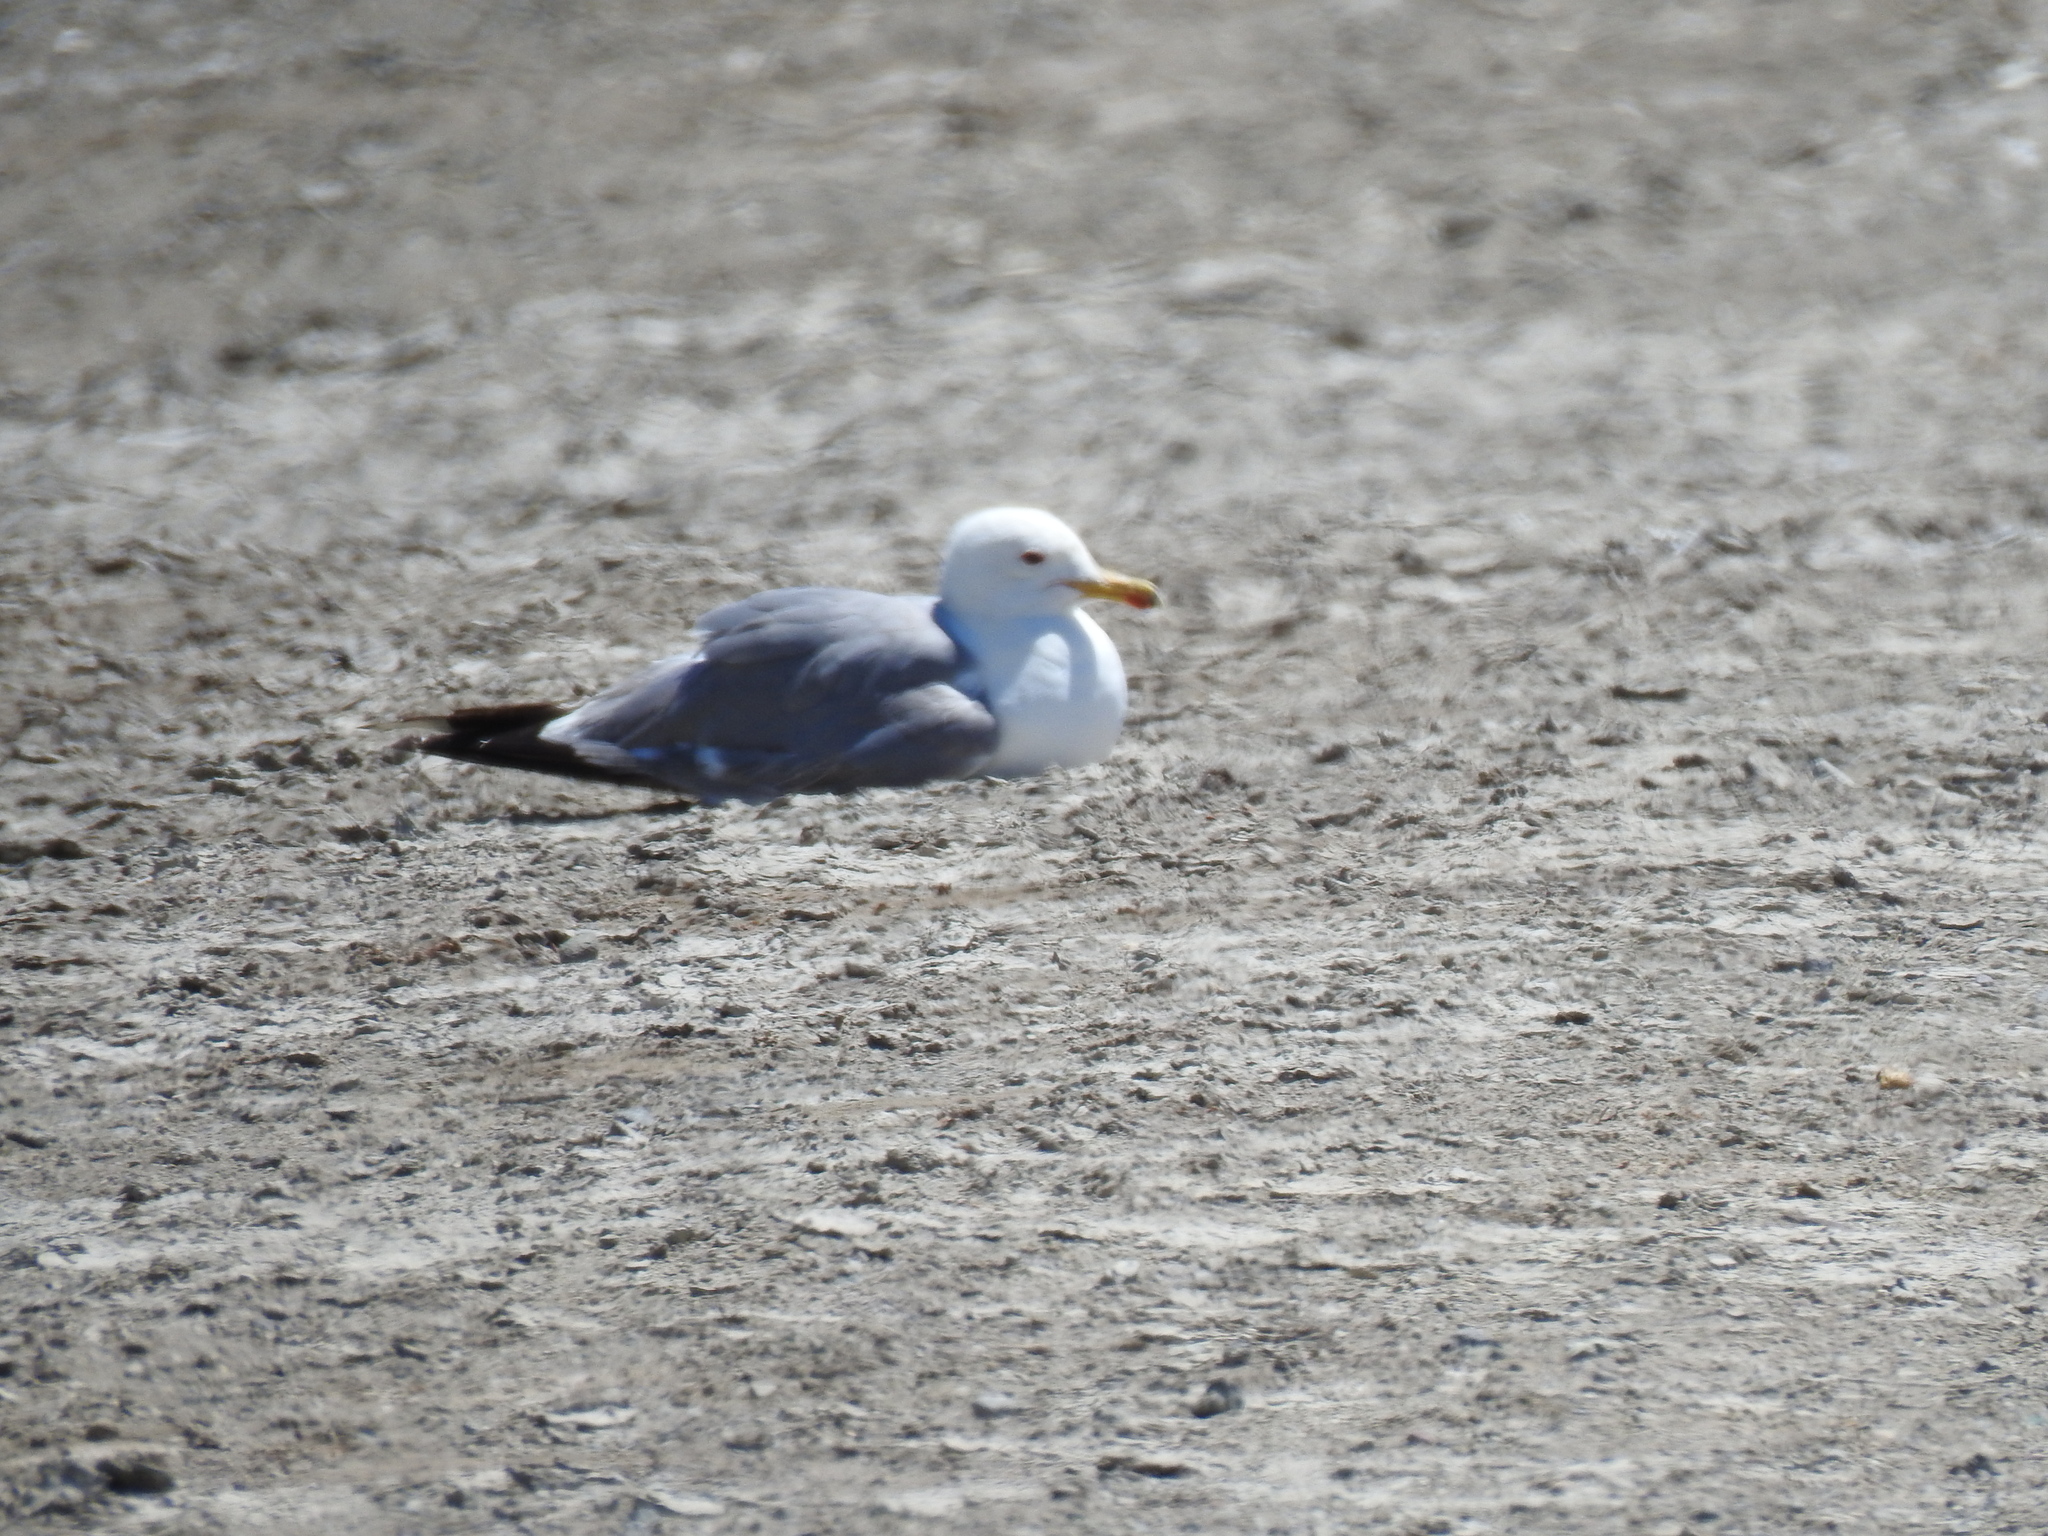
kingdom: Animalia
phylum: Chordata
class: Aves
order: Charadriiformes
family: Laridae
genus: Larus
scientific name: Larus californicus
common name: California gull
